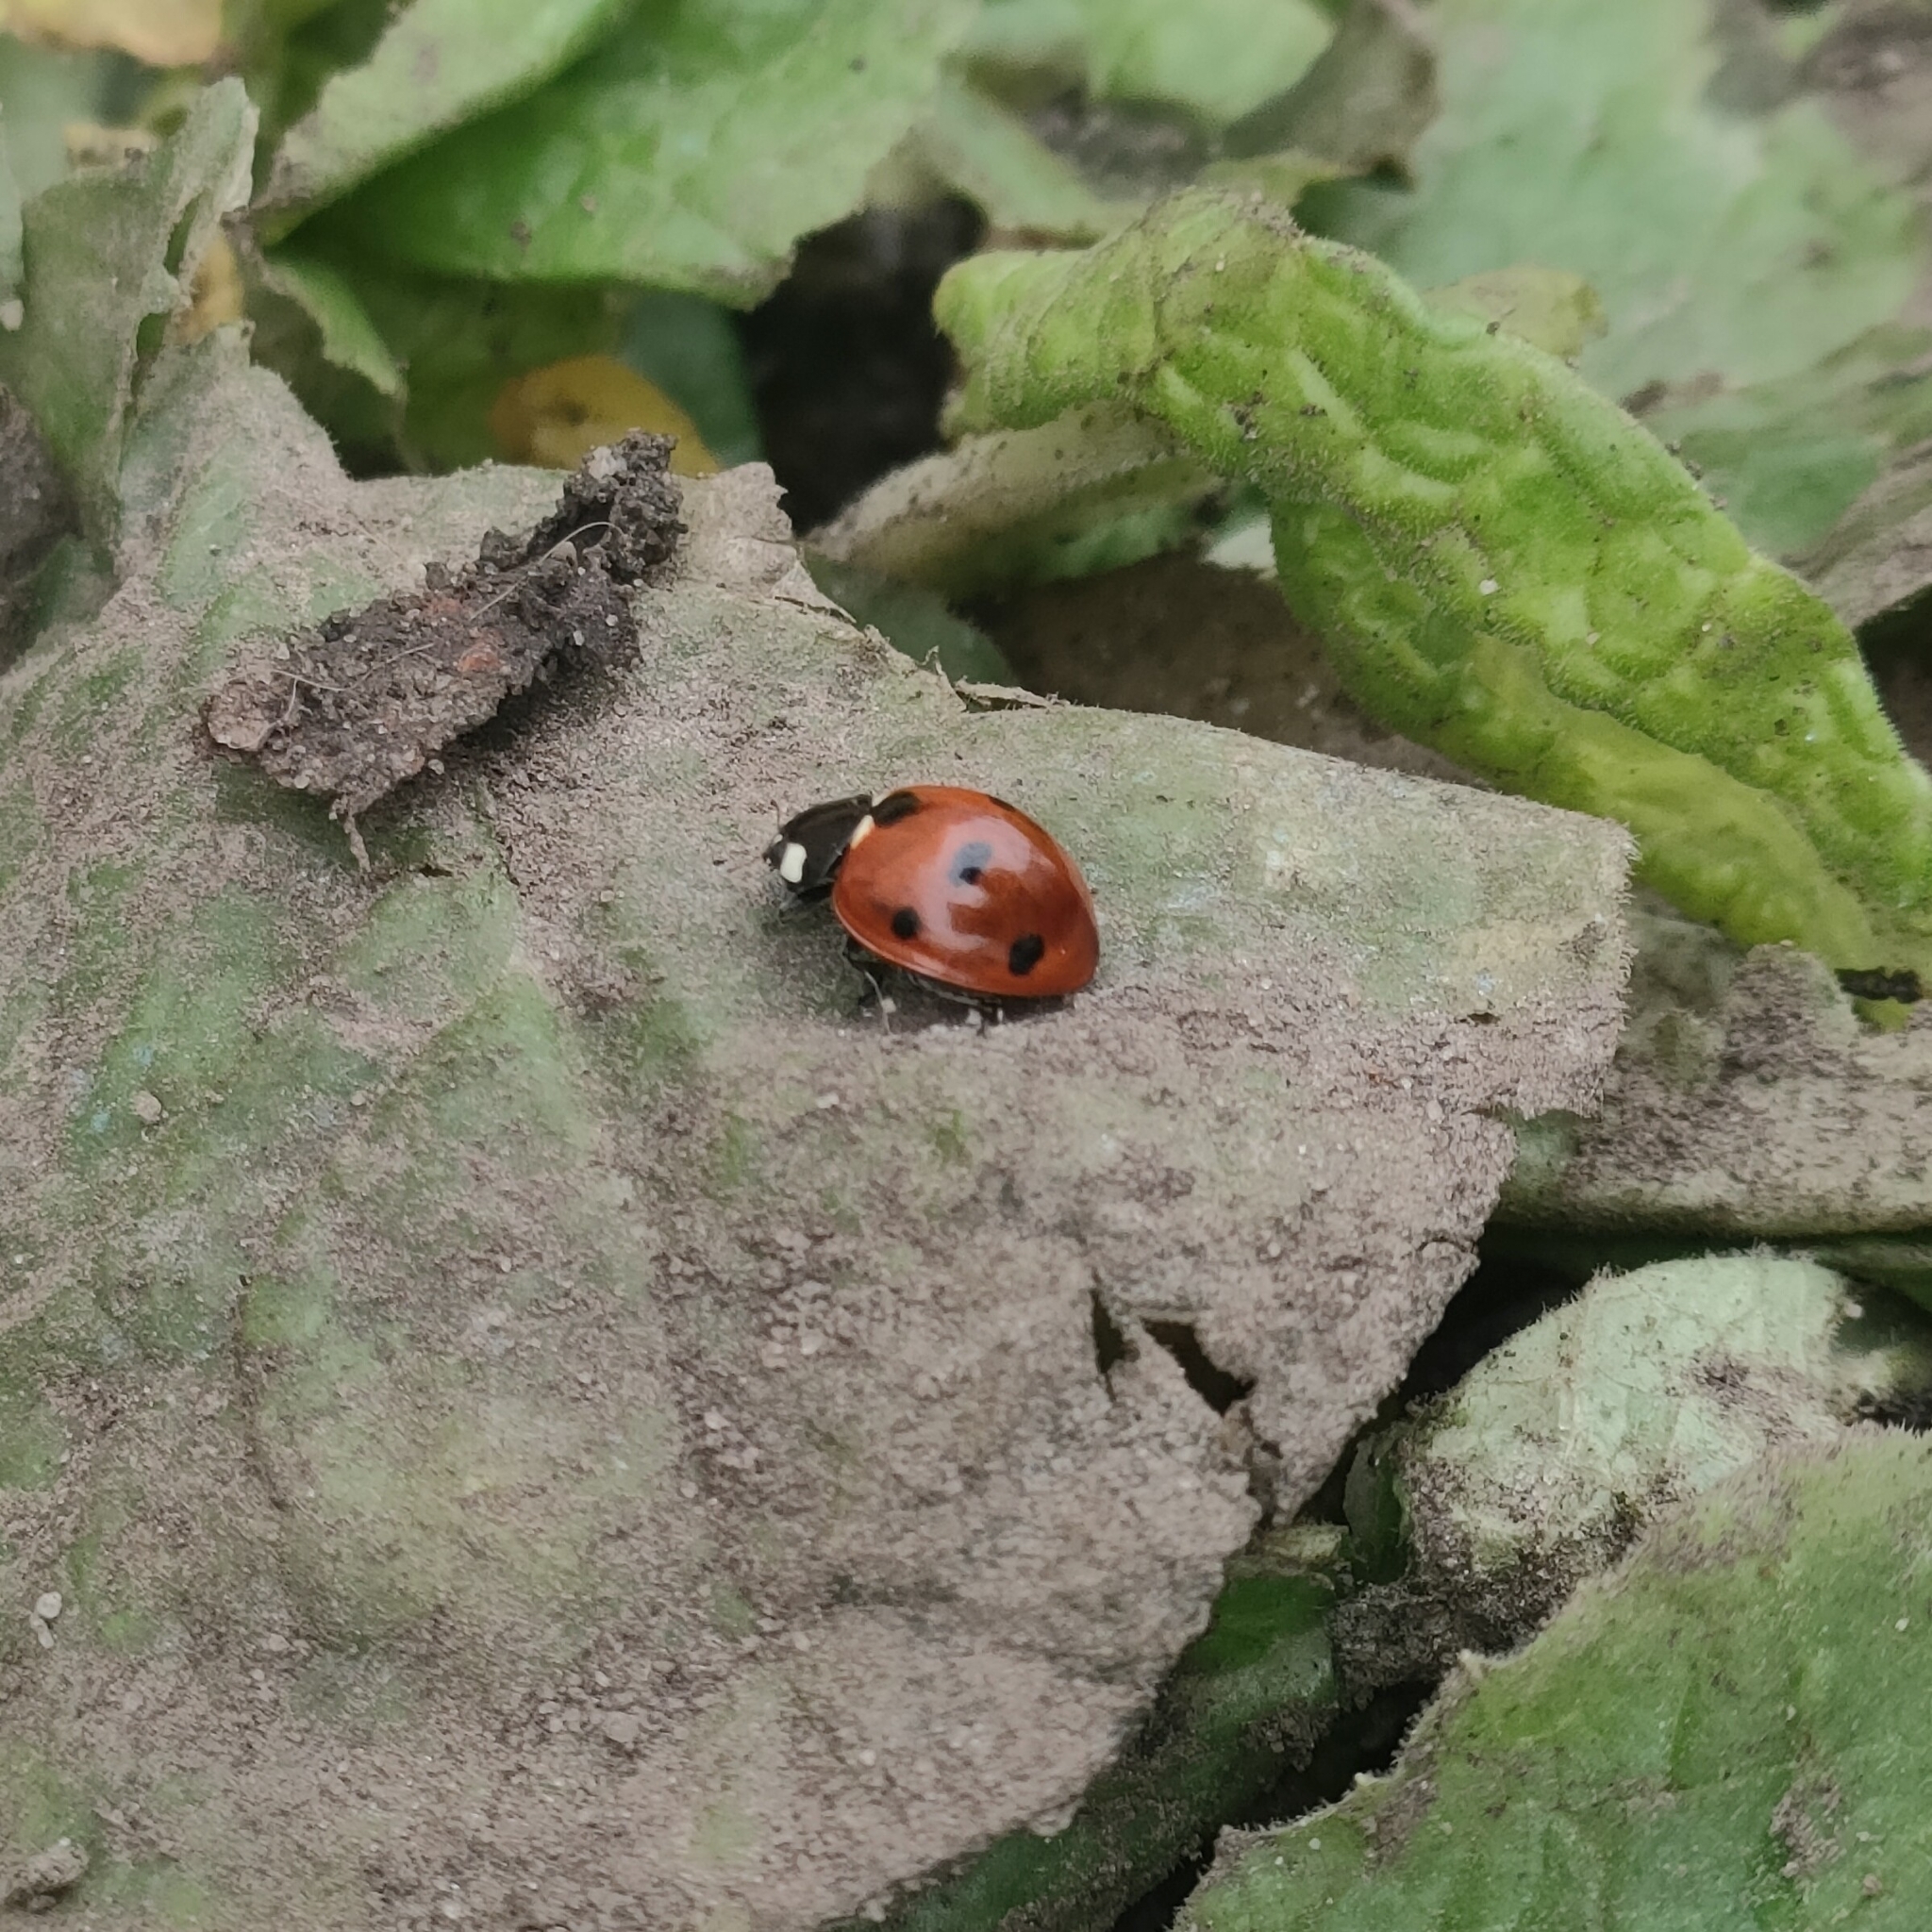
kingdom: Animalia
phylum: Arthropoda
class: Insecta
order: Coleoptera
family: Coccinellidae
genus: Coccinella
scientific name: Coccinella septempunctata
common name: Sevenspotted lady beetle
